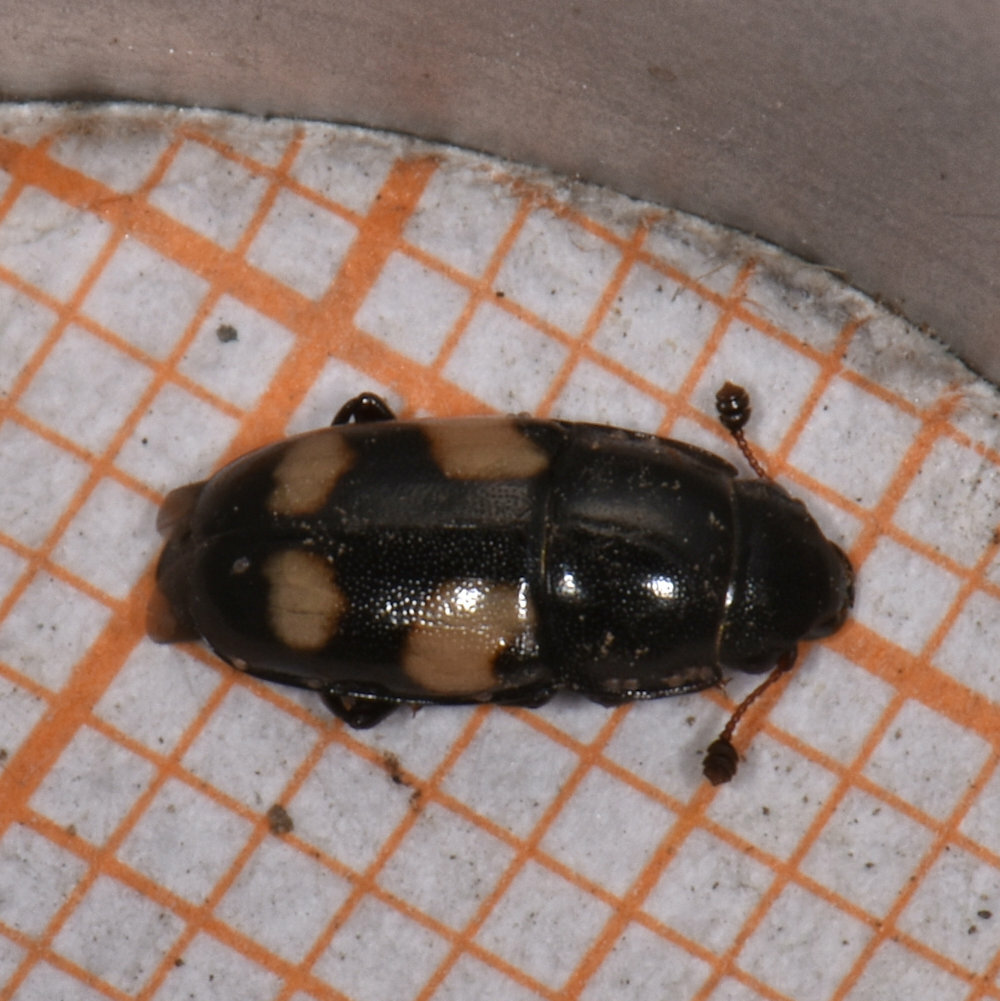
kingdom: Animalia
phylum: Arthropoda
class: Insecta
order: Coleoptera
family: Nitidulidae
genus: Glischrochilus
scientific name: Glischrochilus quadrisignatus
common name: Picnic beetle
